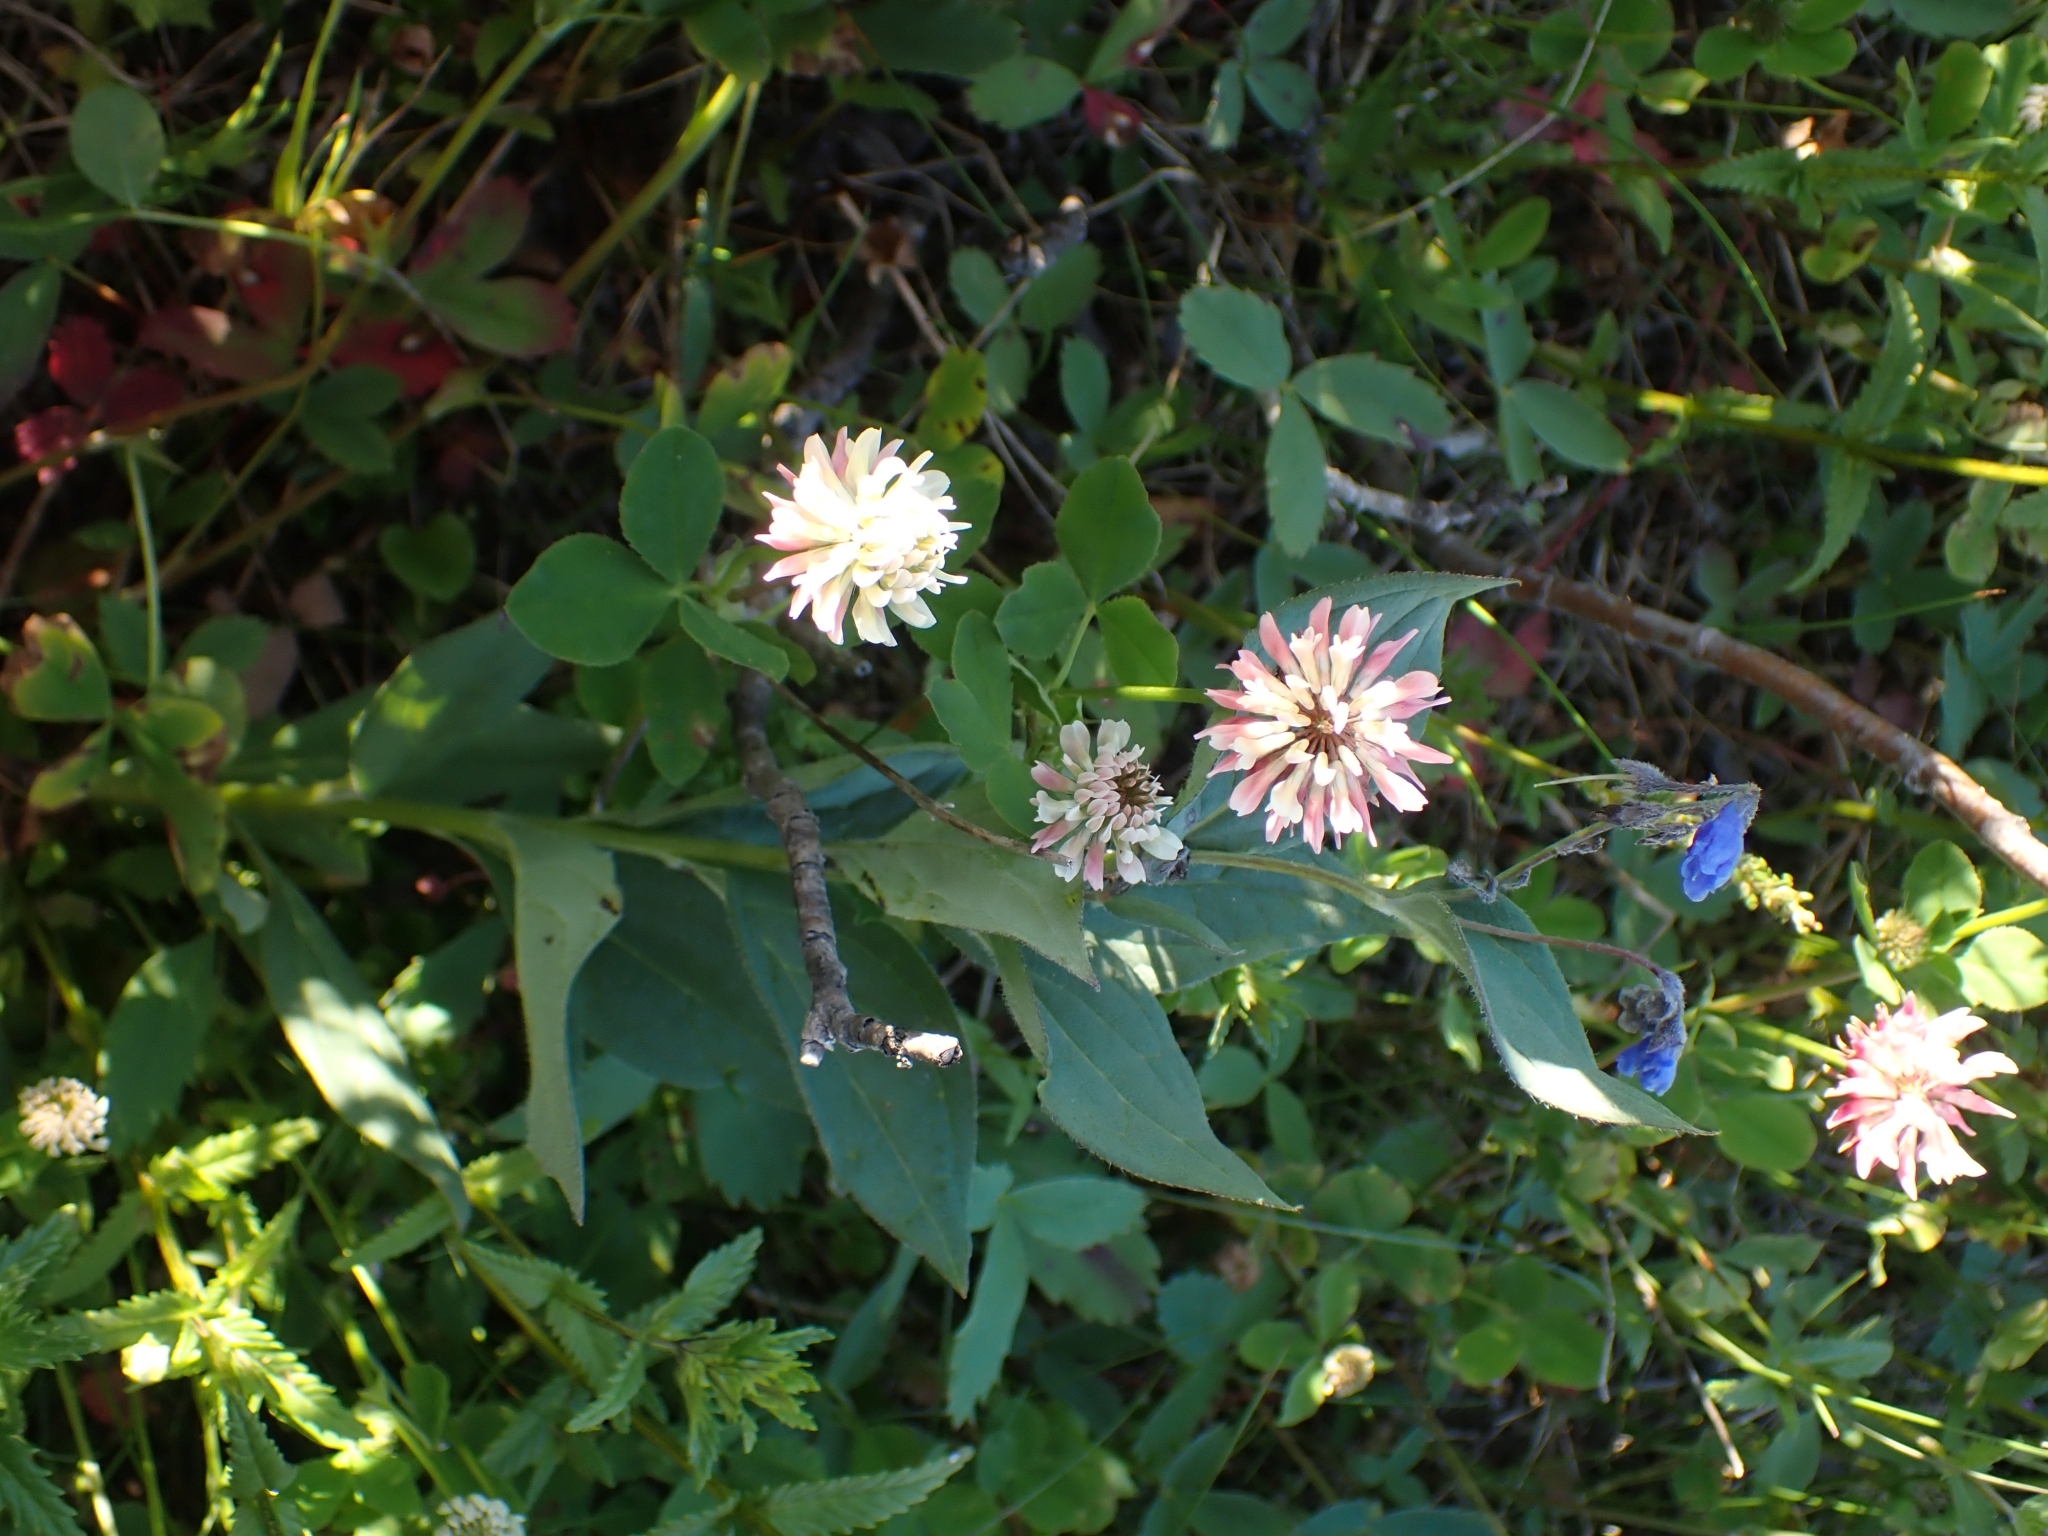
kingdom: Plantae
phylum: Tracheophyta
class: Magnoliopsida
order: Fabales
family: Fabaceae
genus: Trifolium
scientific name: Trifolium hybridum
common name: Alsike clover
